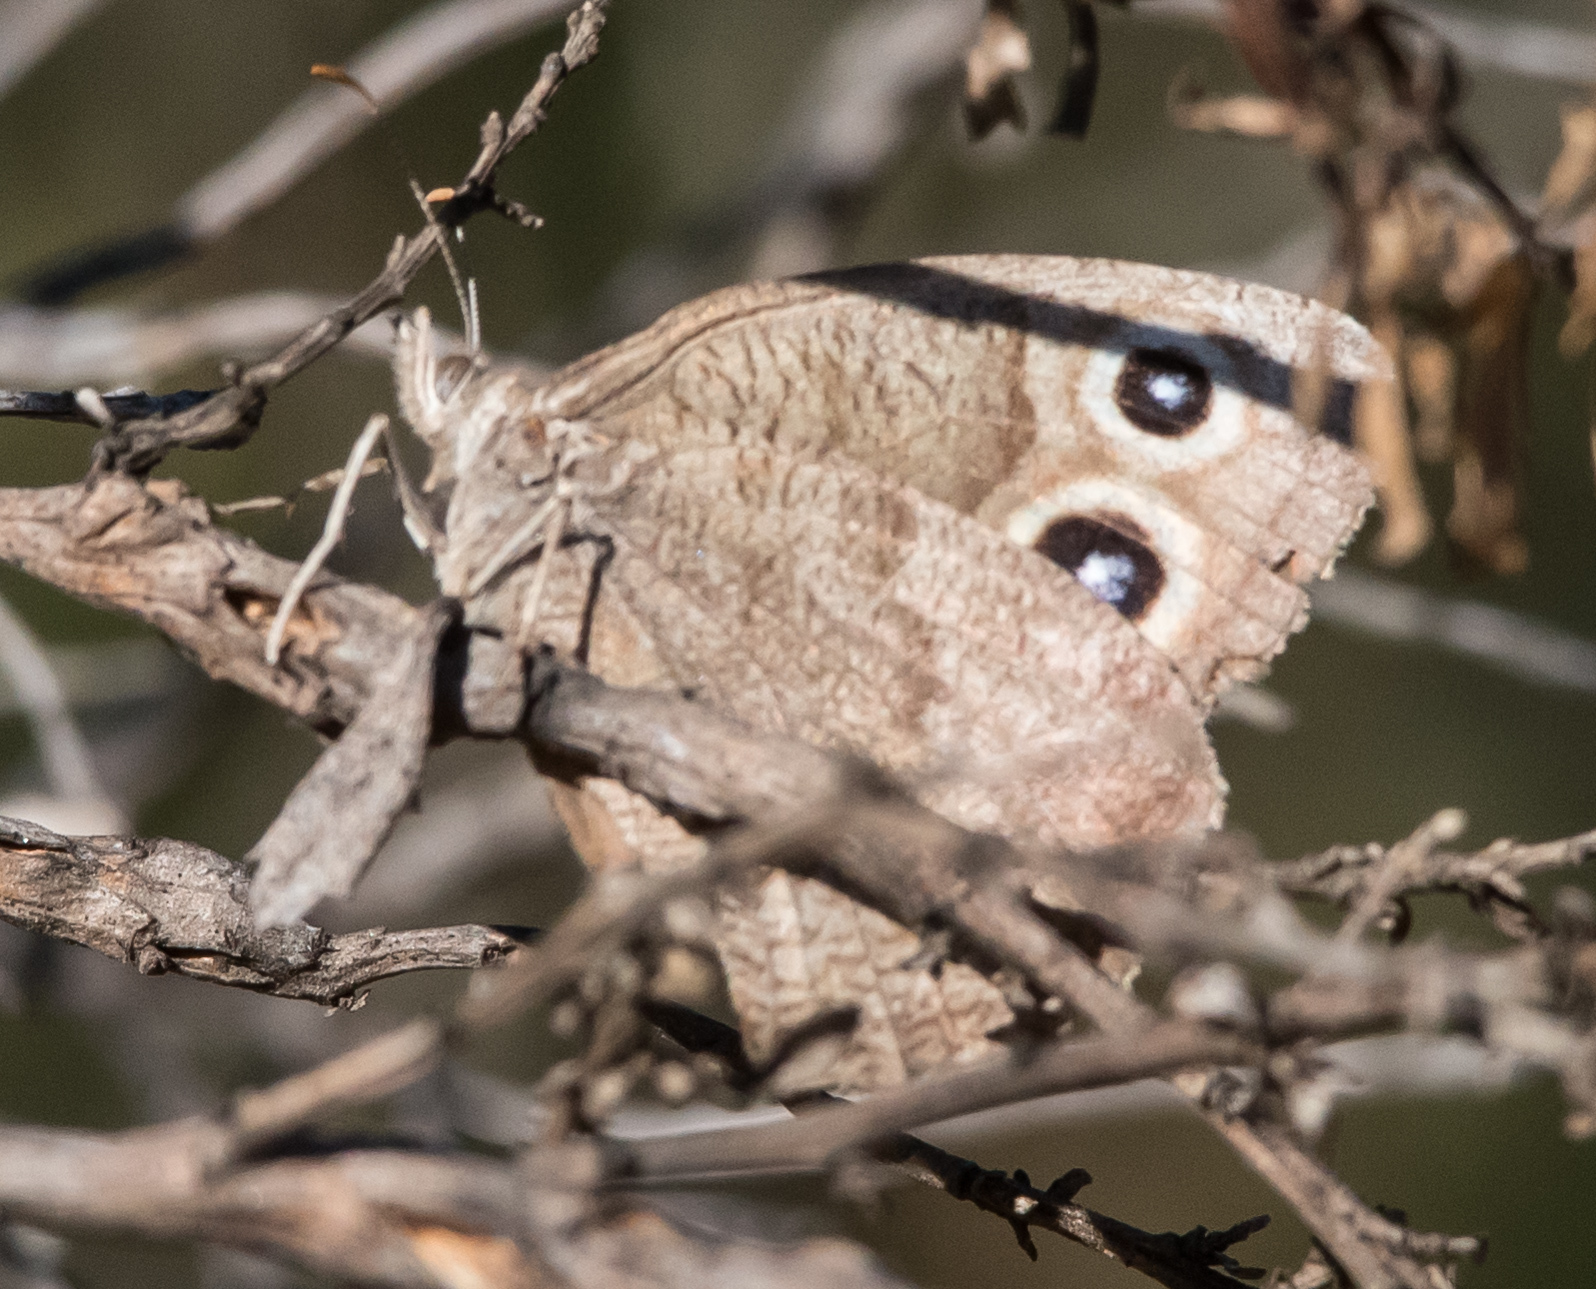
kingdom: Animalia
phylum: Arthropoda
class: Insecta
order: Lepidoptera
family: Nymphalidae
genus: Cercyonis
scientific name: Cercyonis pegala
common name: Common wood-nymph
